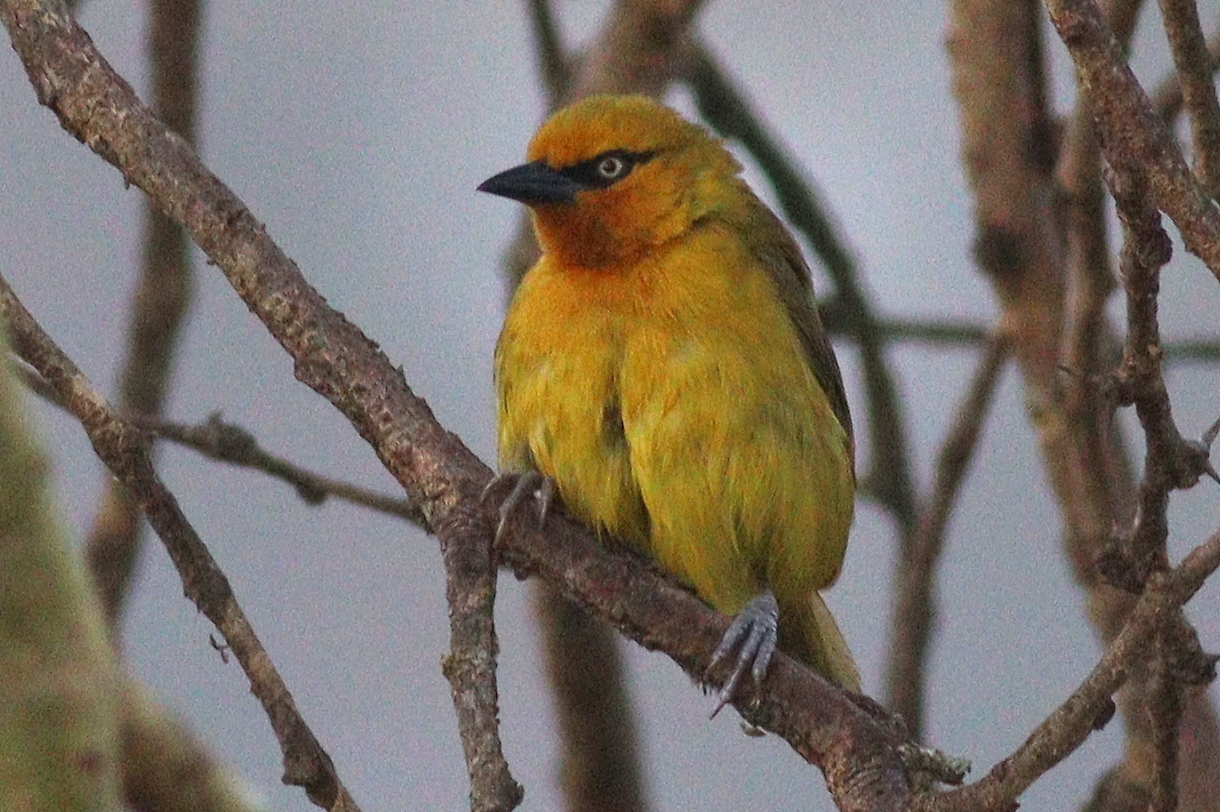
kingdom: Animalia
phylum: Chordata
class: Aves
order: Passeriformes
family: Ploceidae
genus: Ploceus
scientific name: Ploceus ocularis
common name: Spectacled weaver
